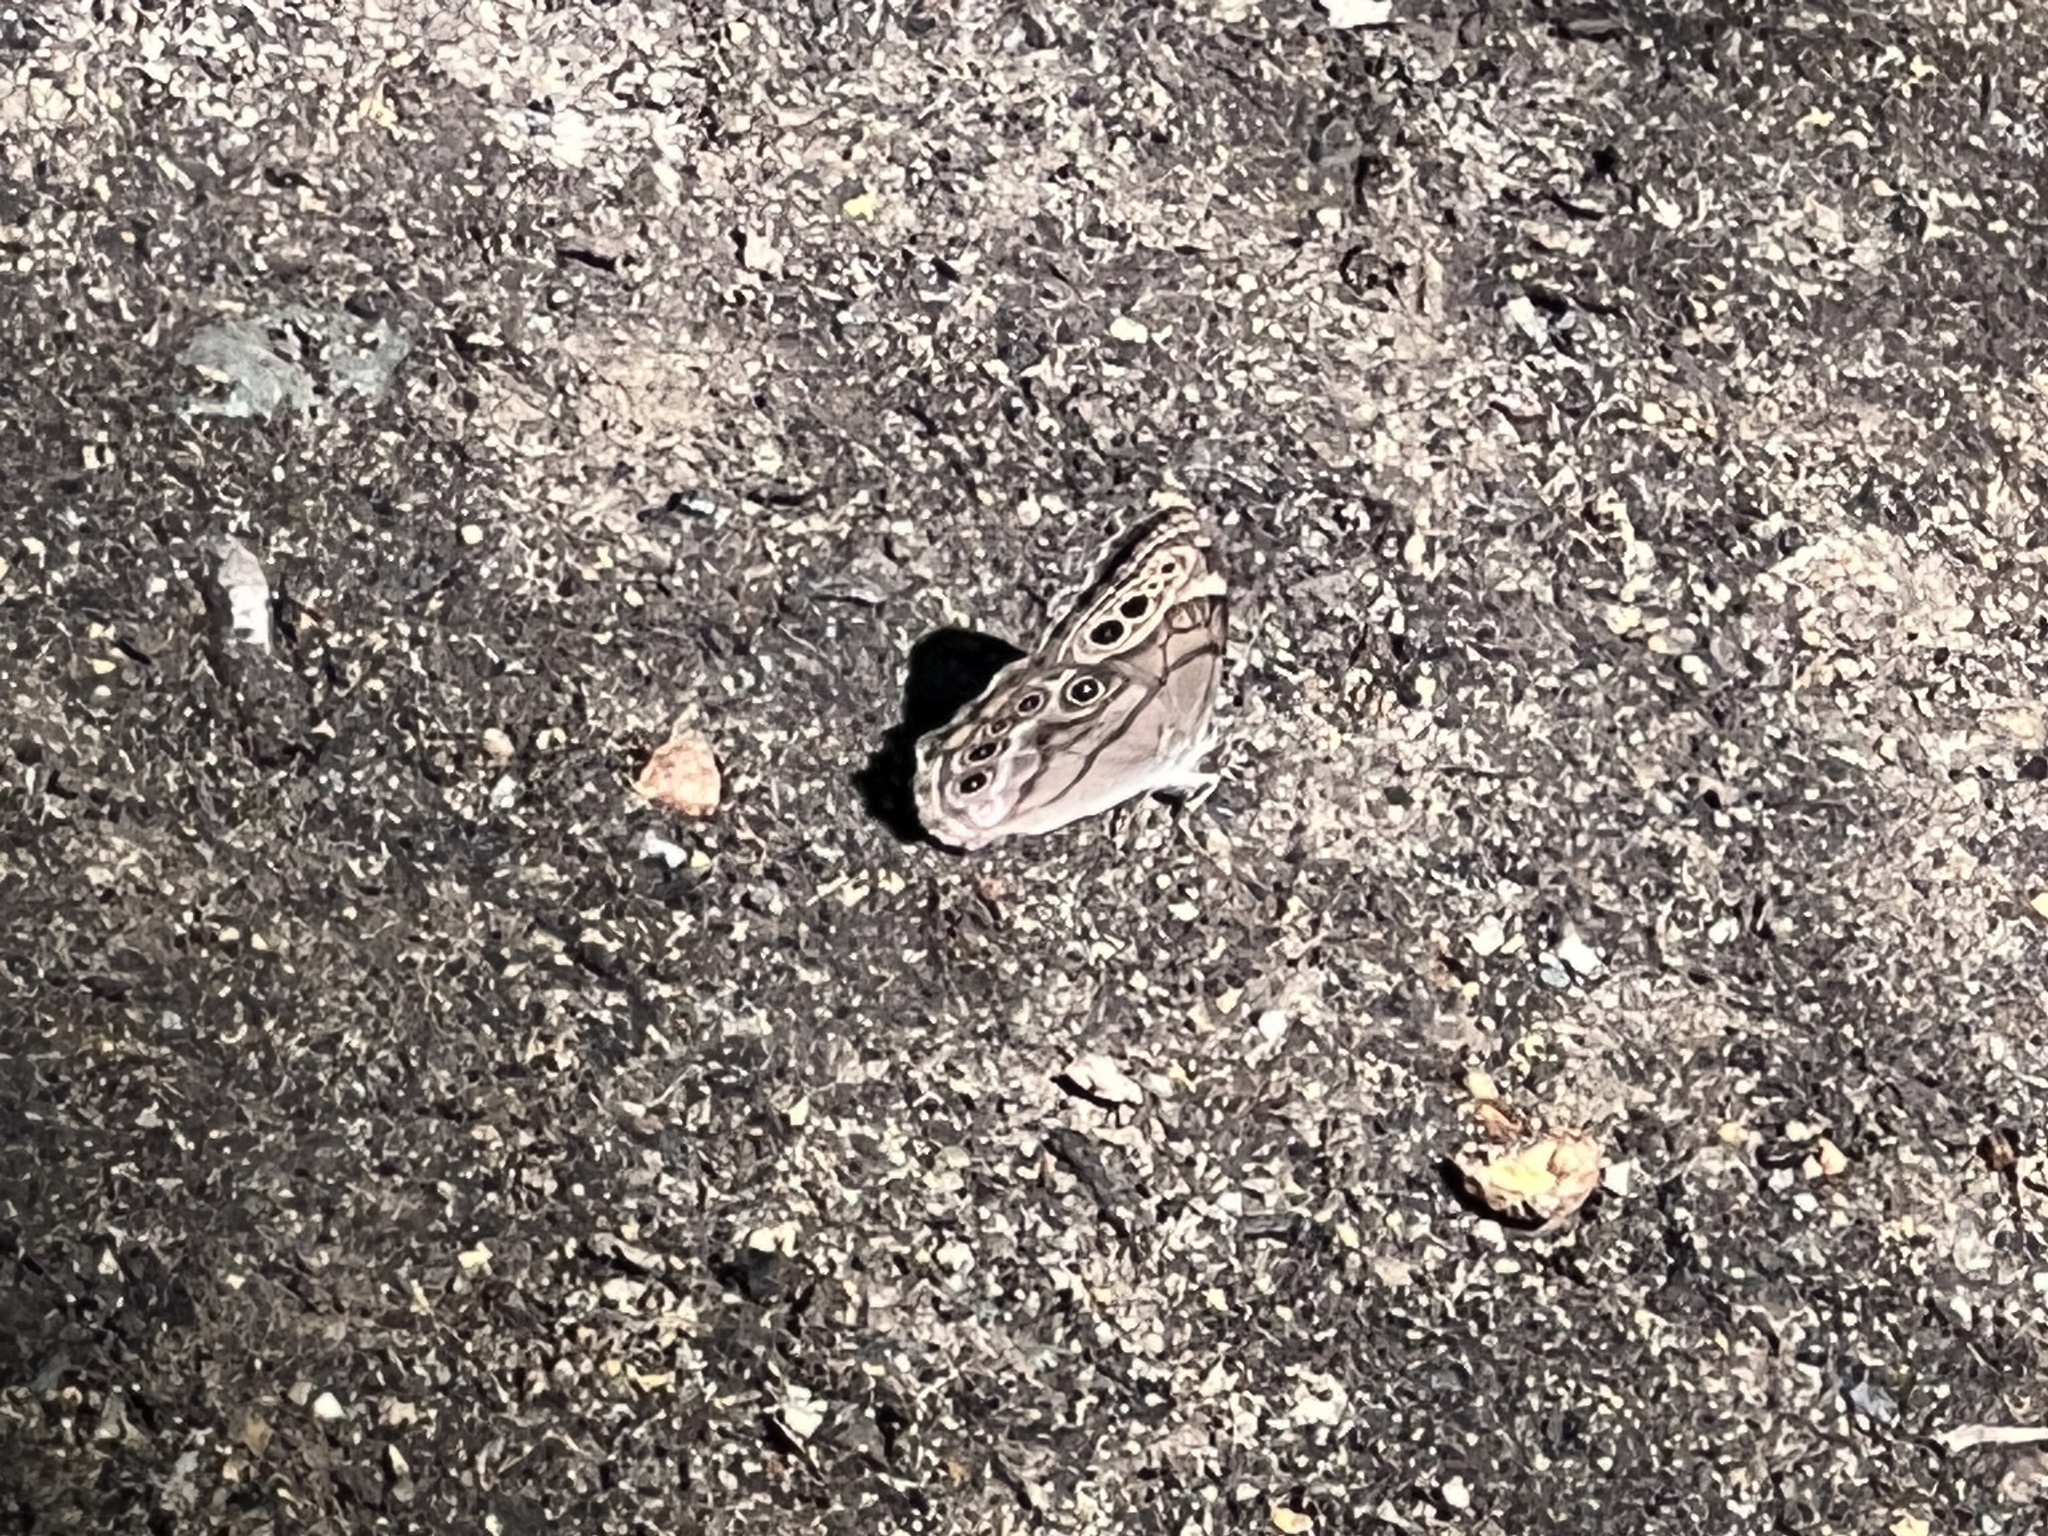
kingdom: Animalia
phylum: Arthropoda
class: Insecta
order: Lepidoptera
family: Nymphalidae
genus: Lethe
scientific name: Lethe anthedon
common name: Northern pearly-eye
